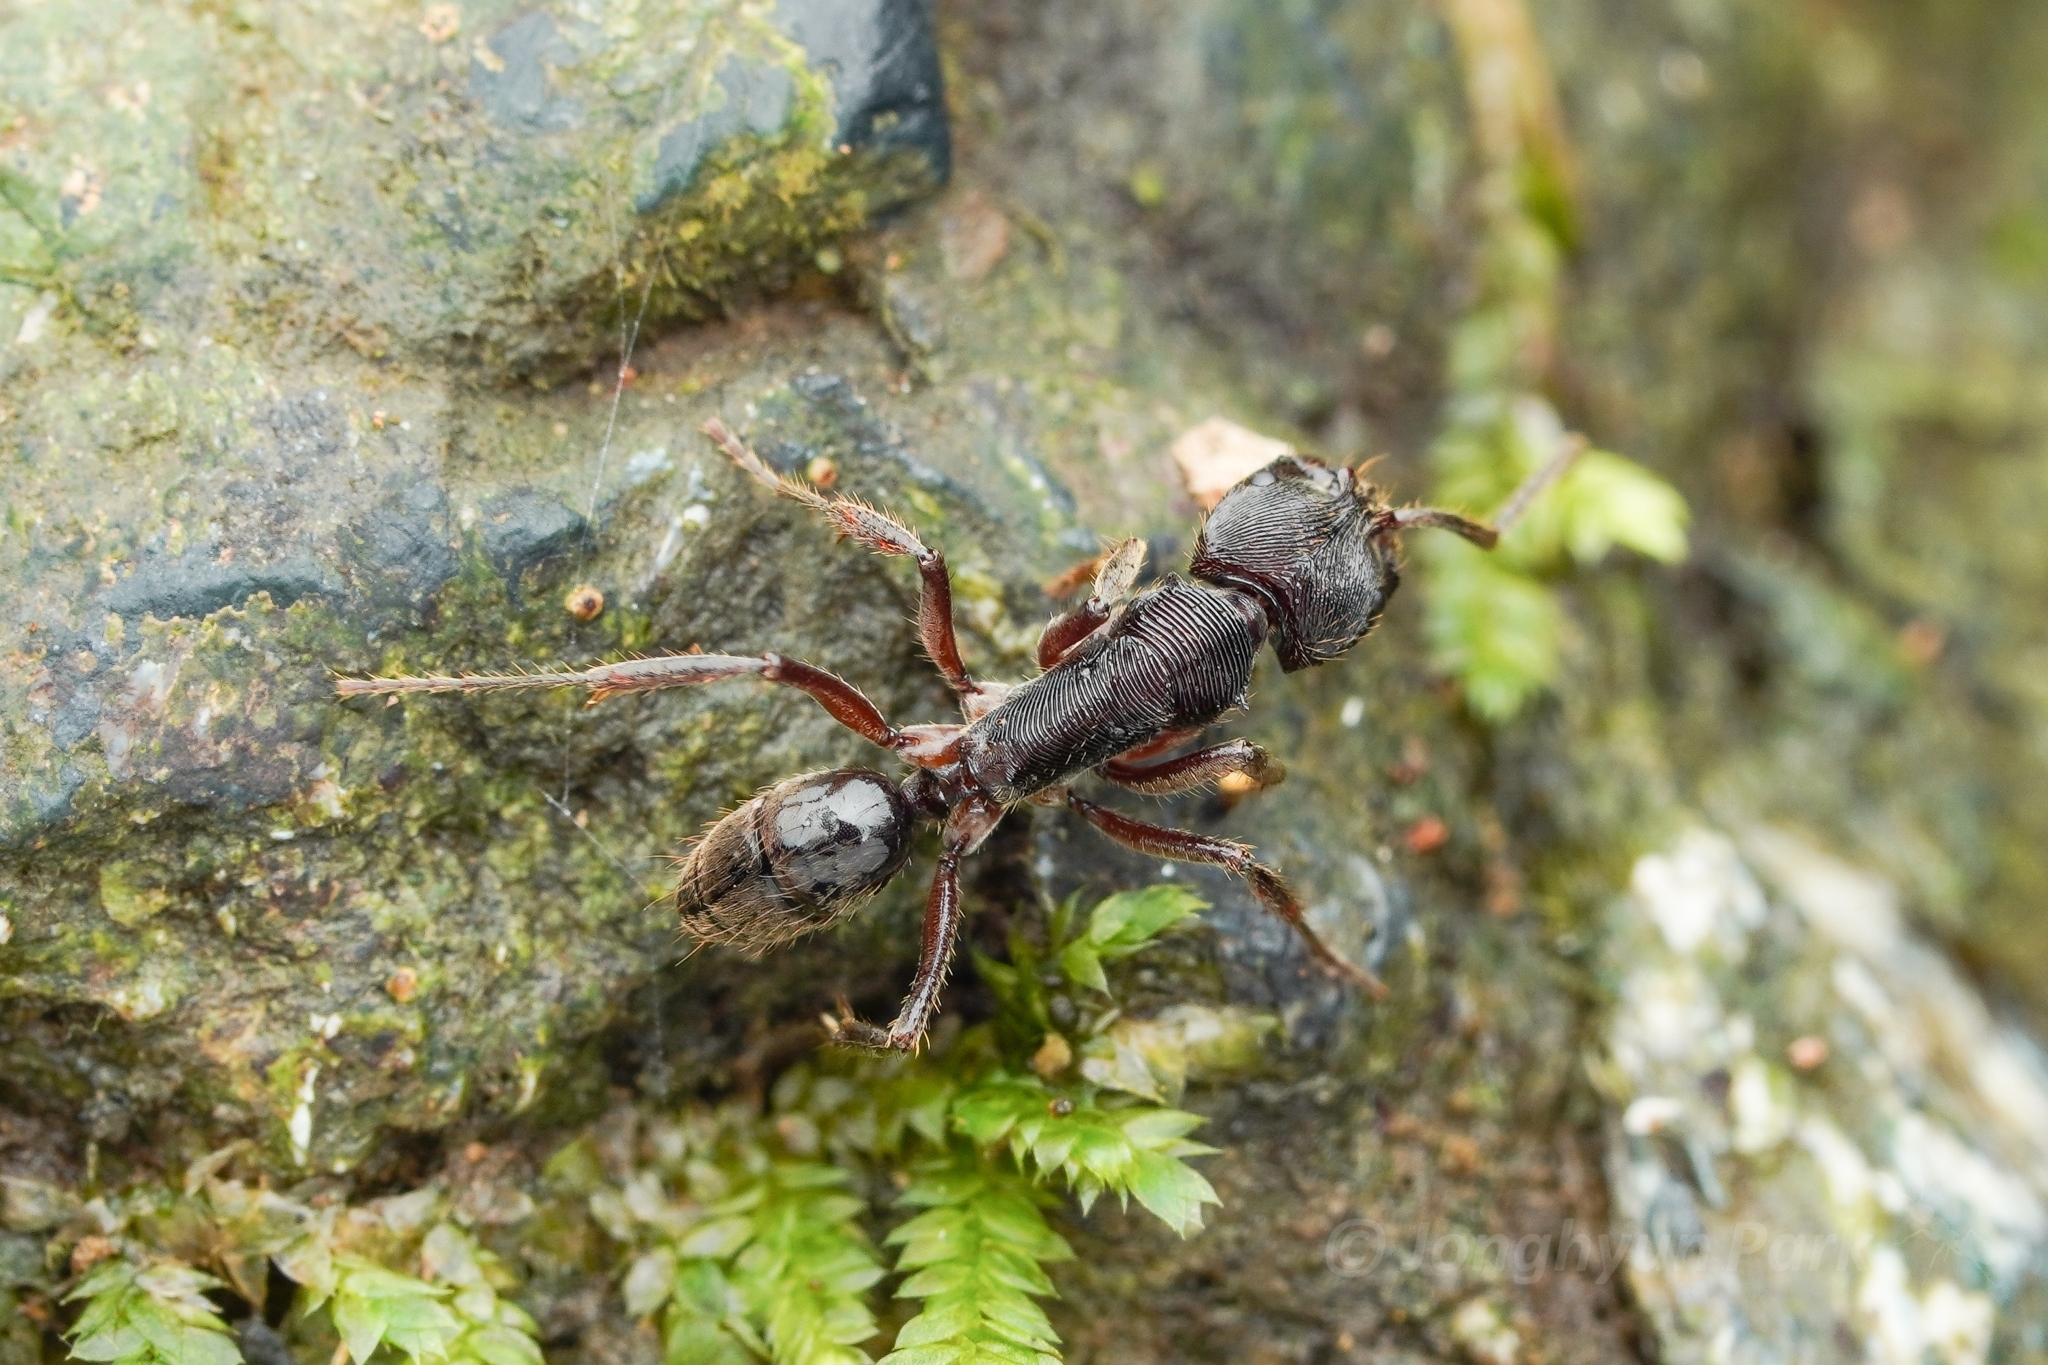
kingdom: Animalia
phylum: Arthropoda
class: Insecta
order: Hymenoptera
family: Formicidae
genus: Odontoponera
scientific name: Odontoponera transversa
